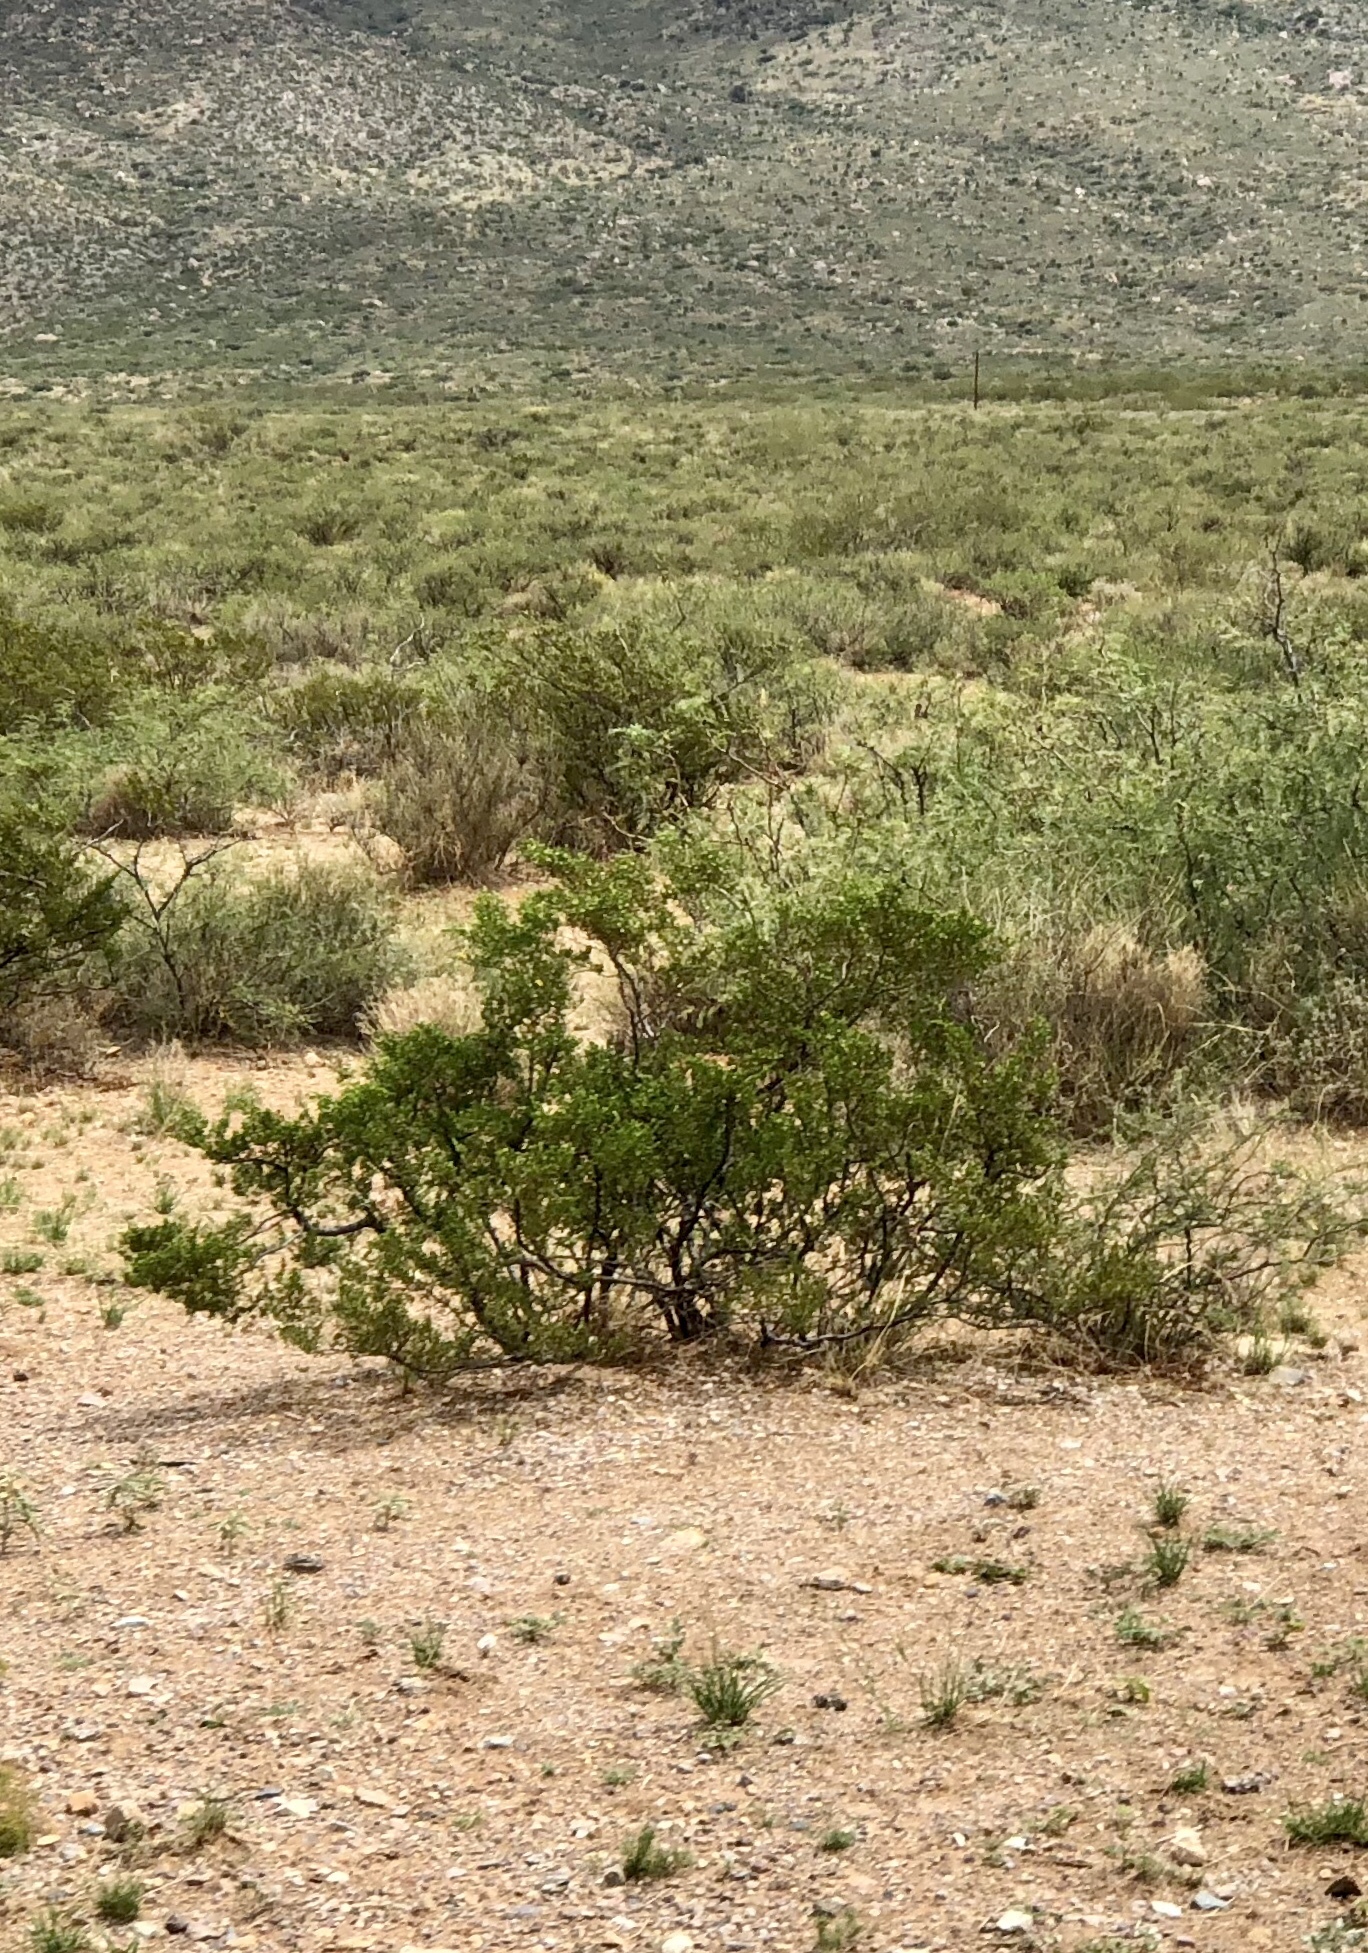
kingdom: Plantae
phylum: Tracheophyta
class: Magnoliopsida
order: Zygophyllales
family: Zygophyllaceae
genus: Larrea
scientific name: Larrea tridentata
